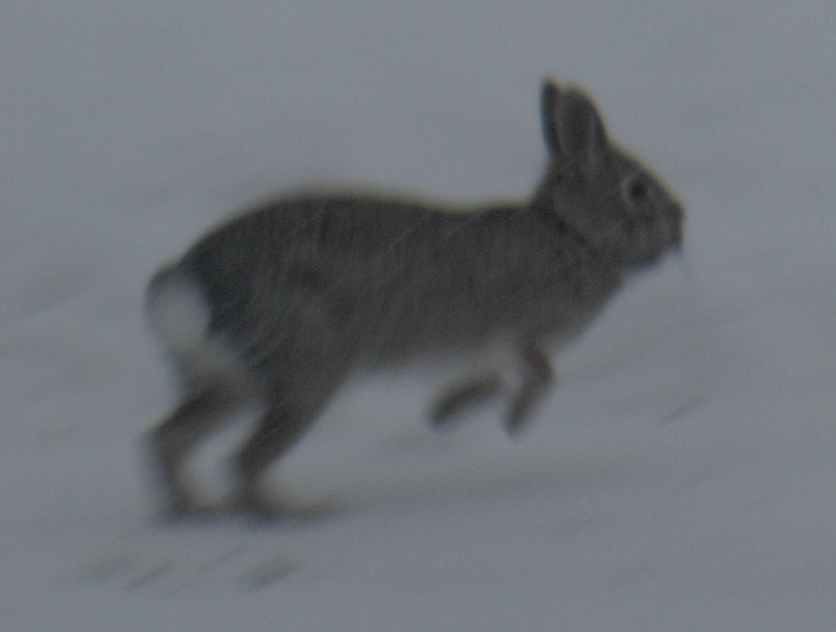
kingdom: Animalia
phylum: Chordata
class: Mammalia
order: Lagomorpha
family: Leporidae
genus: Sylvilagus
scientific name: Sylvilagus floridanus
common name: Eastern cottontail
